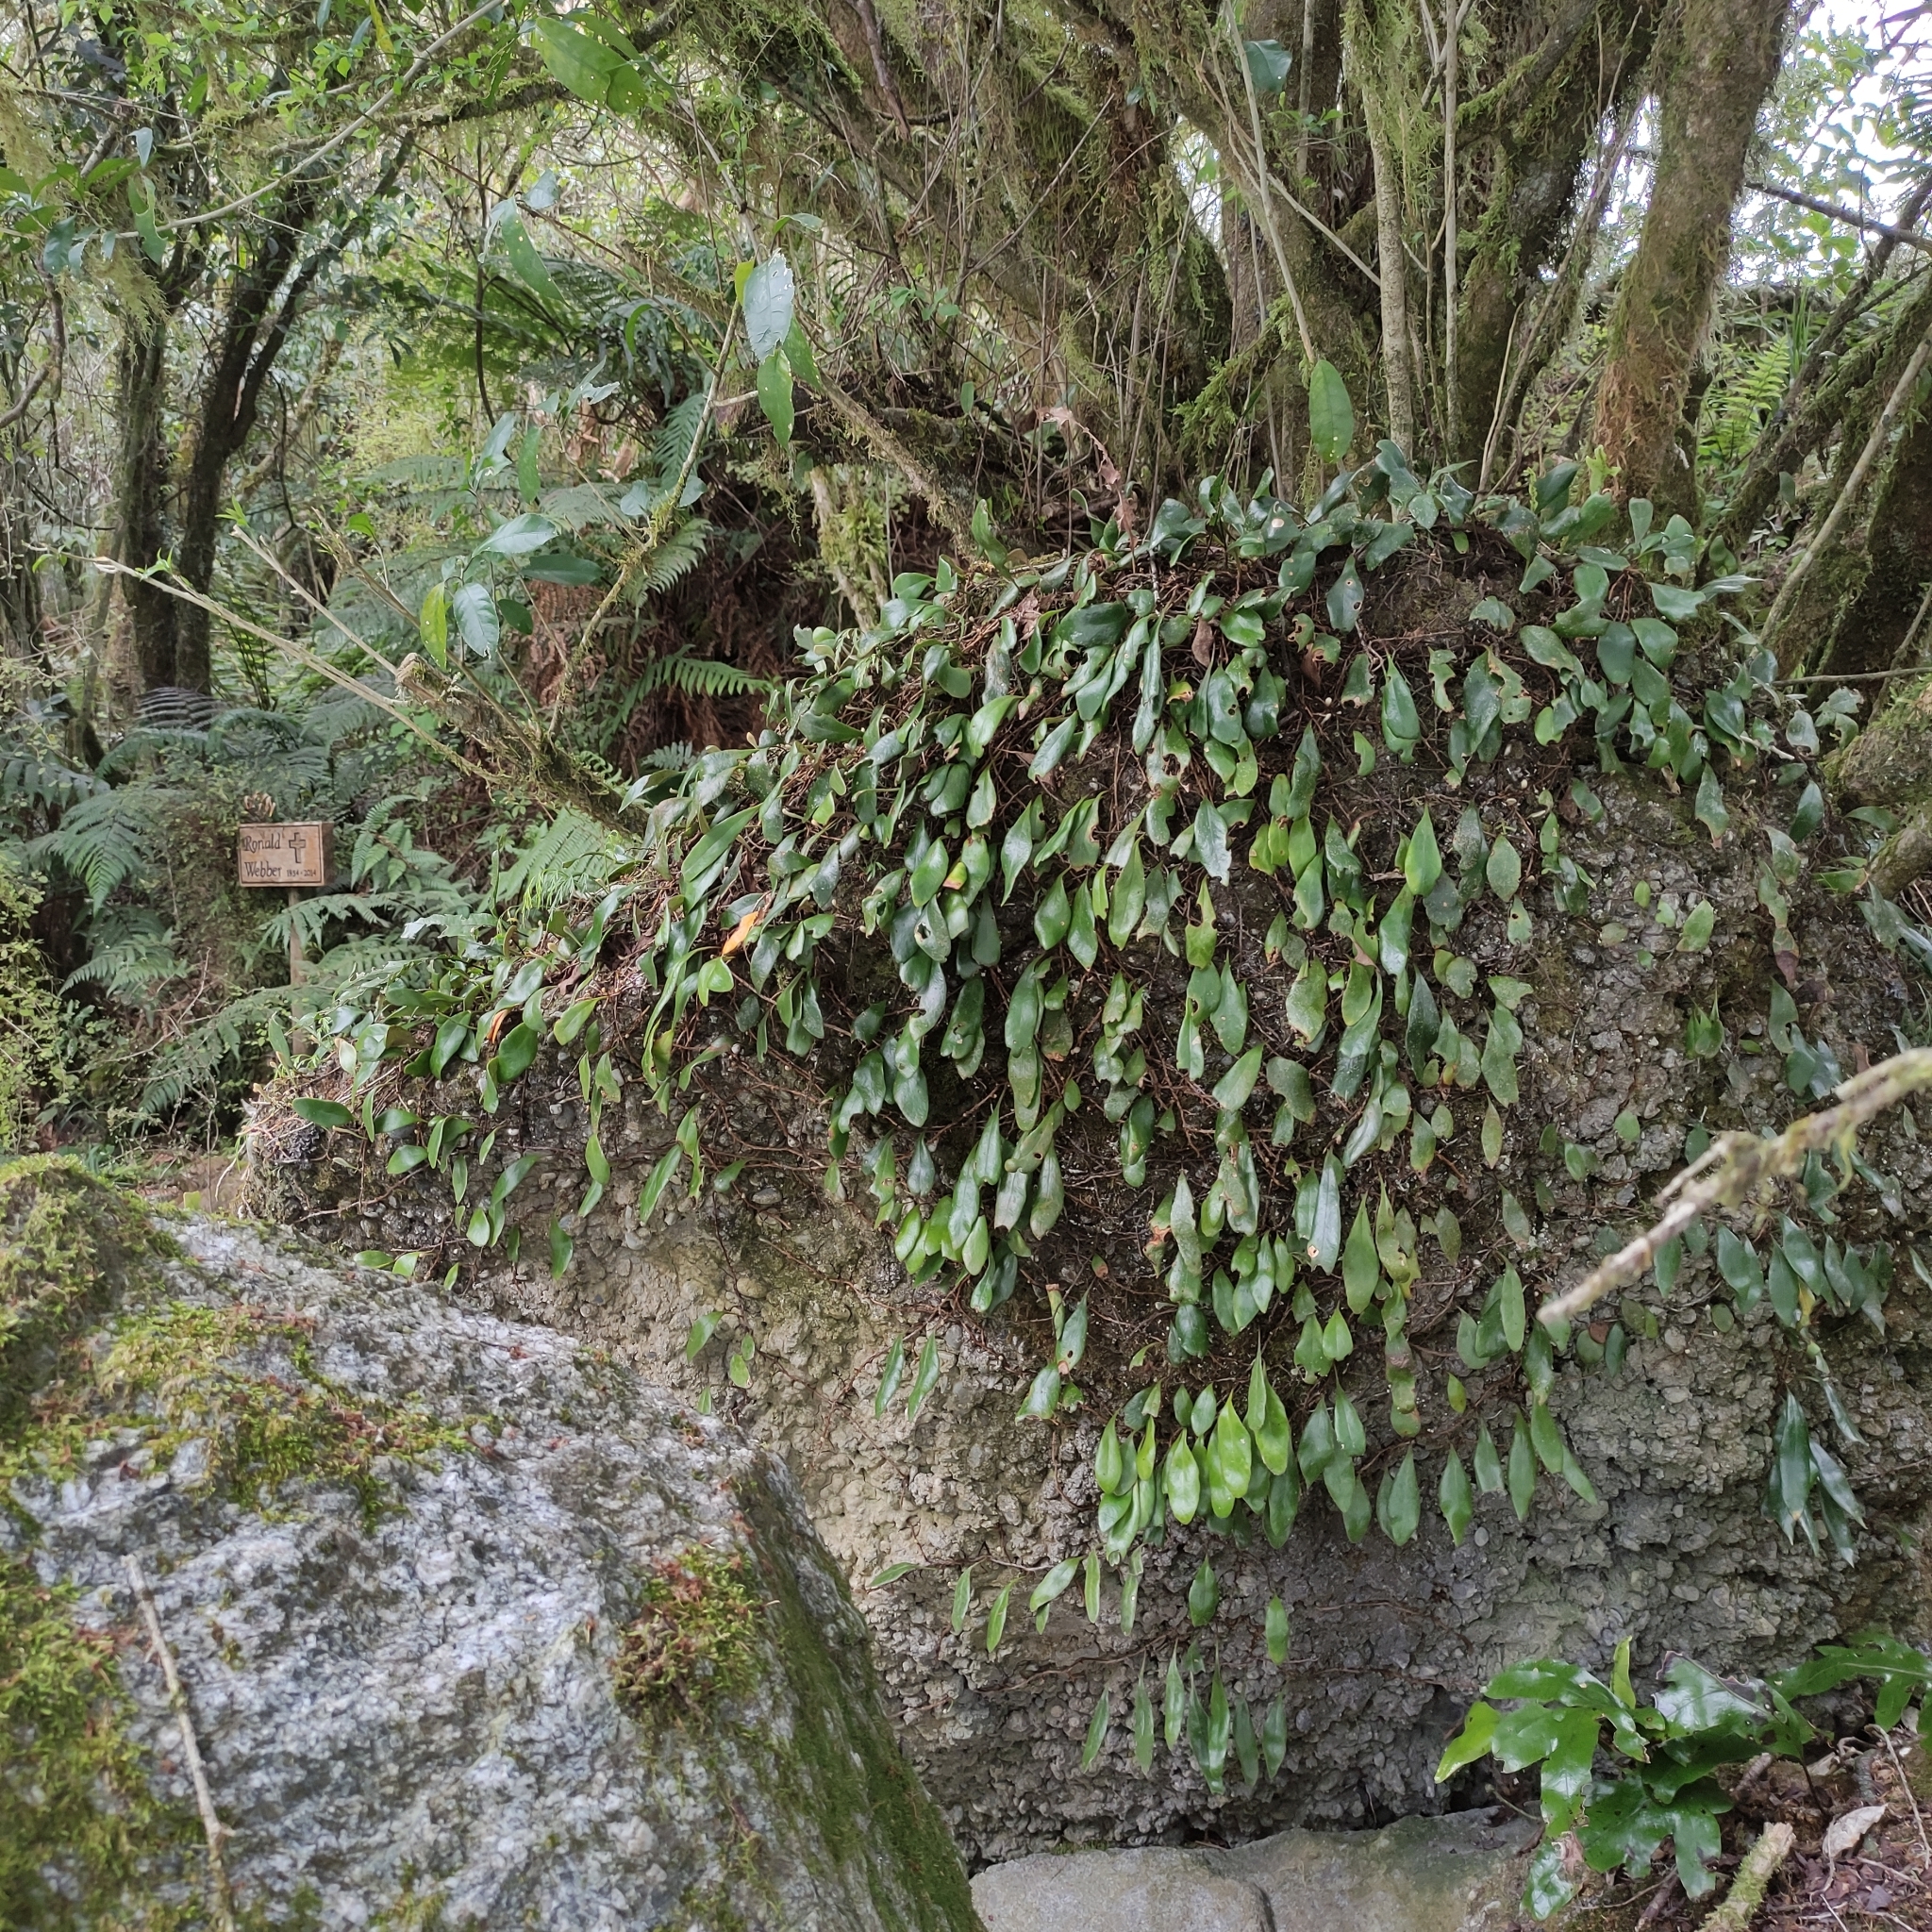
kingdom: Plantae
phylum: Tracheophyta
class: Polypodiopsida
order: Polypodiales
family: Polypodiaceae
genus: Pyrrosia
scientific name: Pyrrosia eleagnifolia
